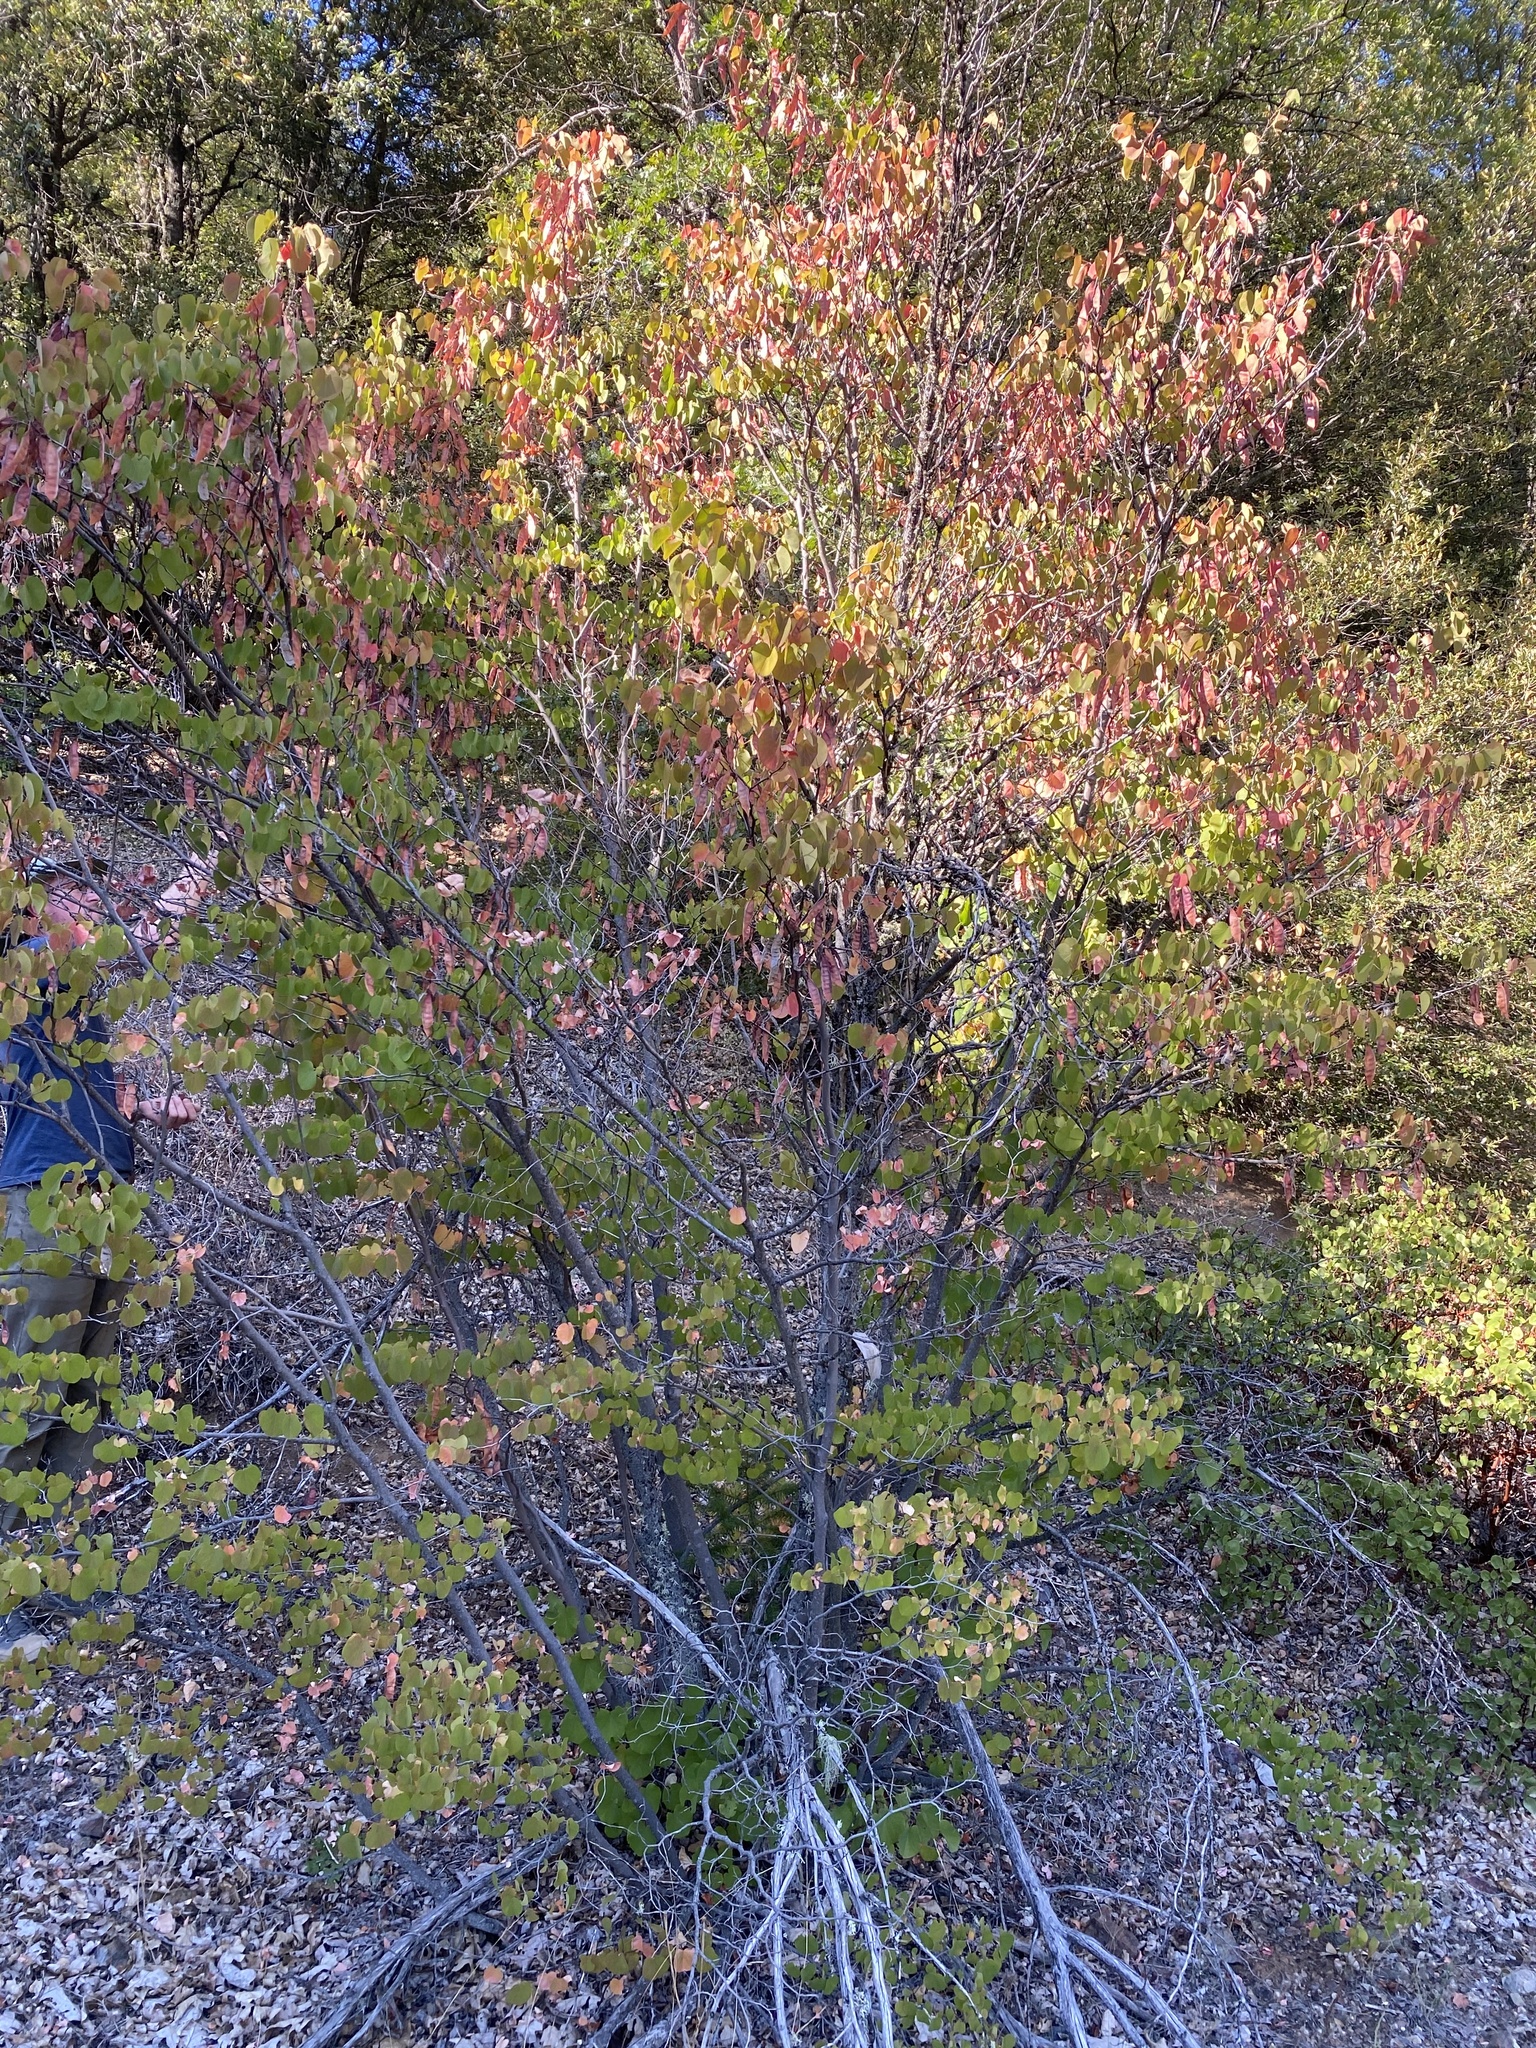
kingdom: Plantae
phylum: Tracheophyta
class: Magnoliopsida
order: Fabales
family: Fabaceae
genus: Cercis
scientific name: Cercis occidentalis
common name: California redbud
